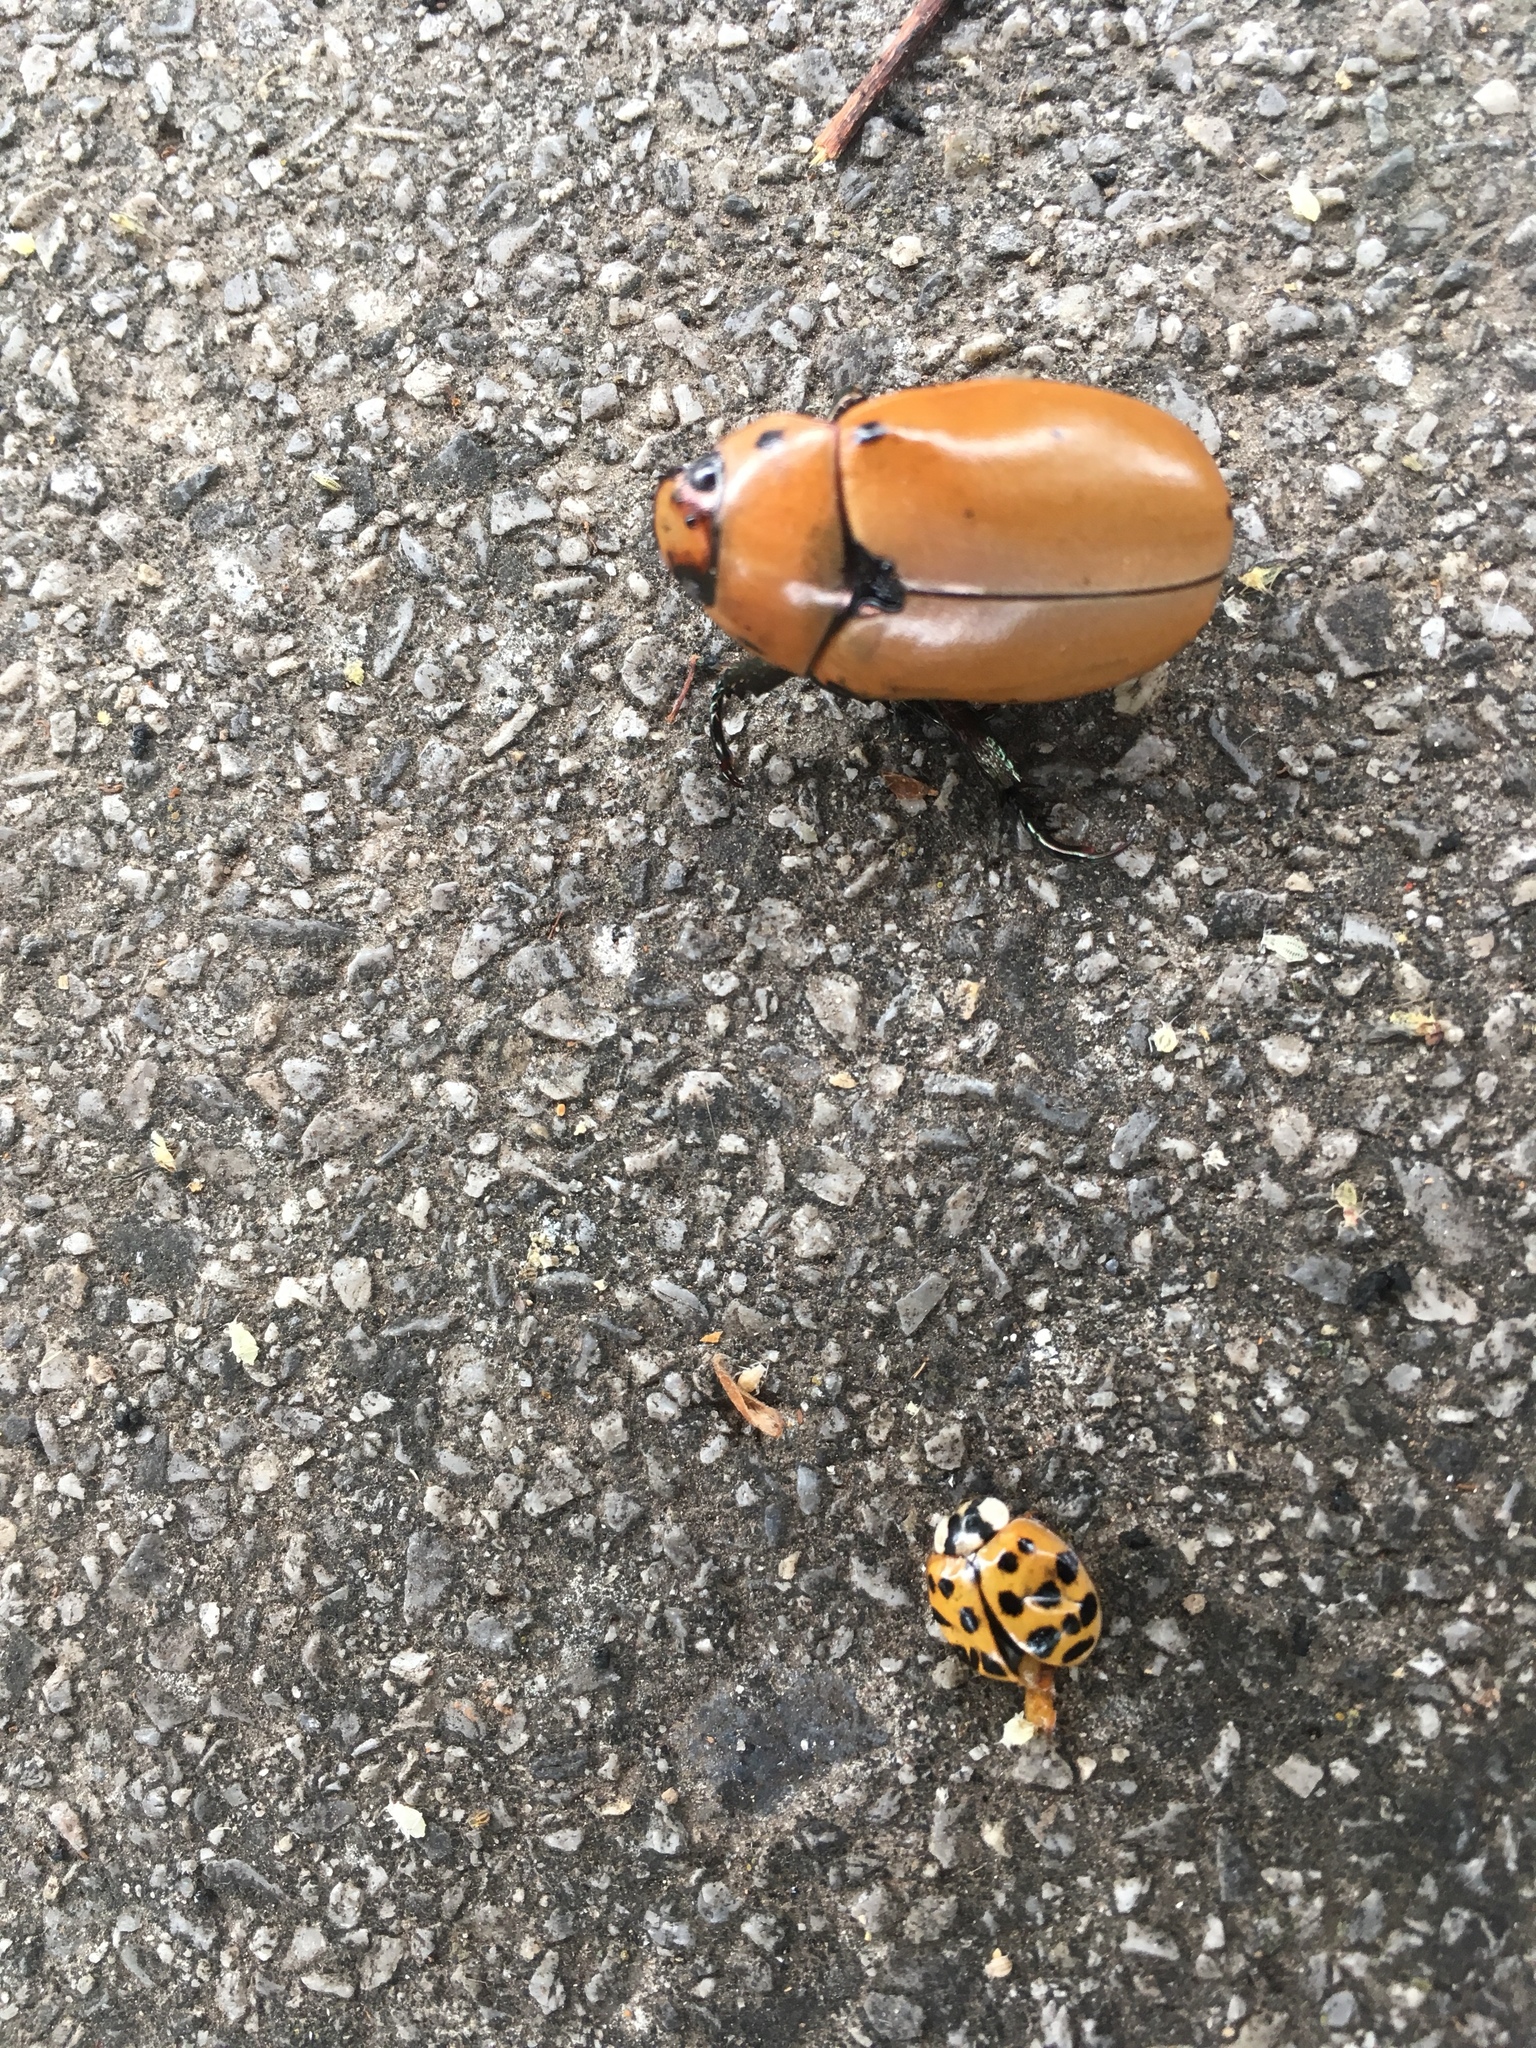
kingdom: Animalia
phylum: Arthropoda
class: Insecta
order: Coleoptera
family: Scarabaeidae
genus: Pelidnota
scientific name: Pelidnota punctata
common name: Grapevine beetle
